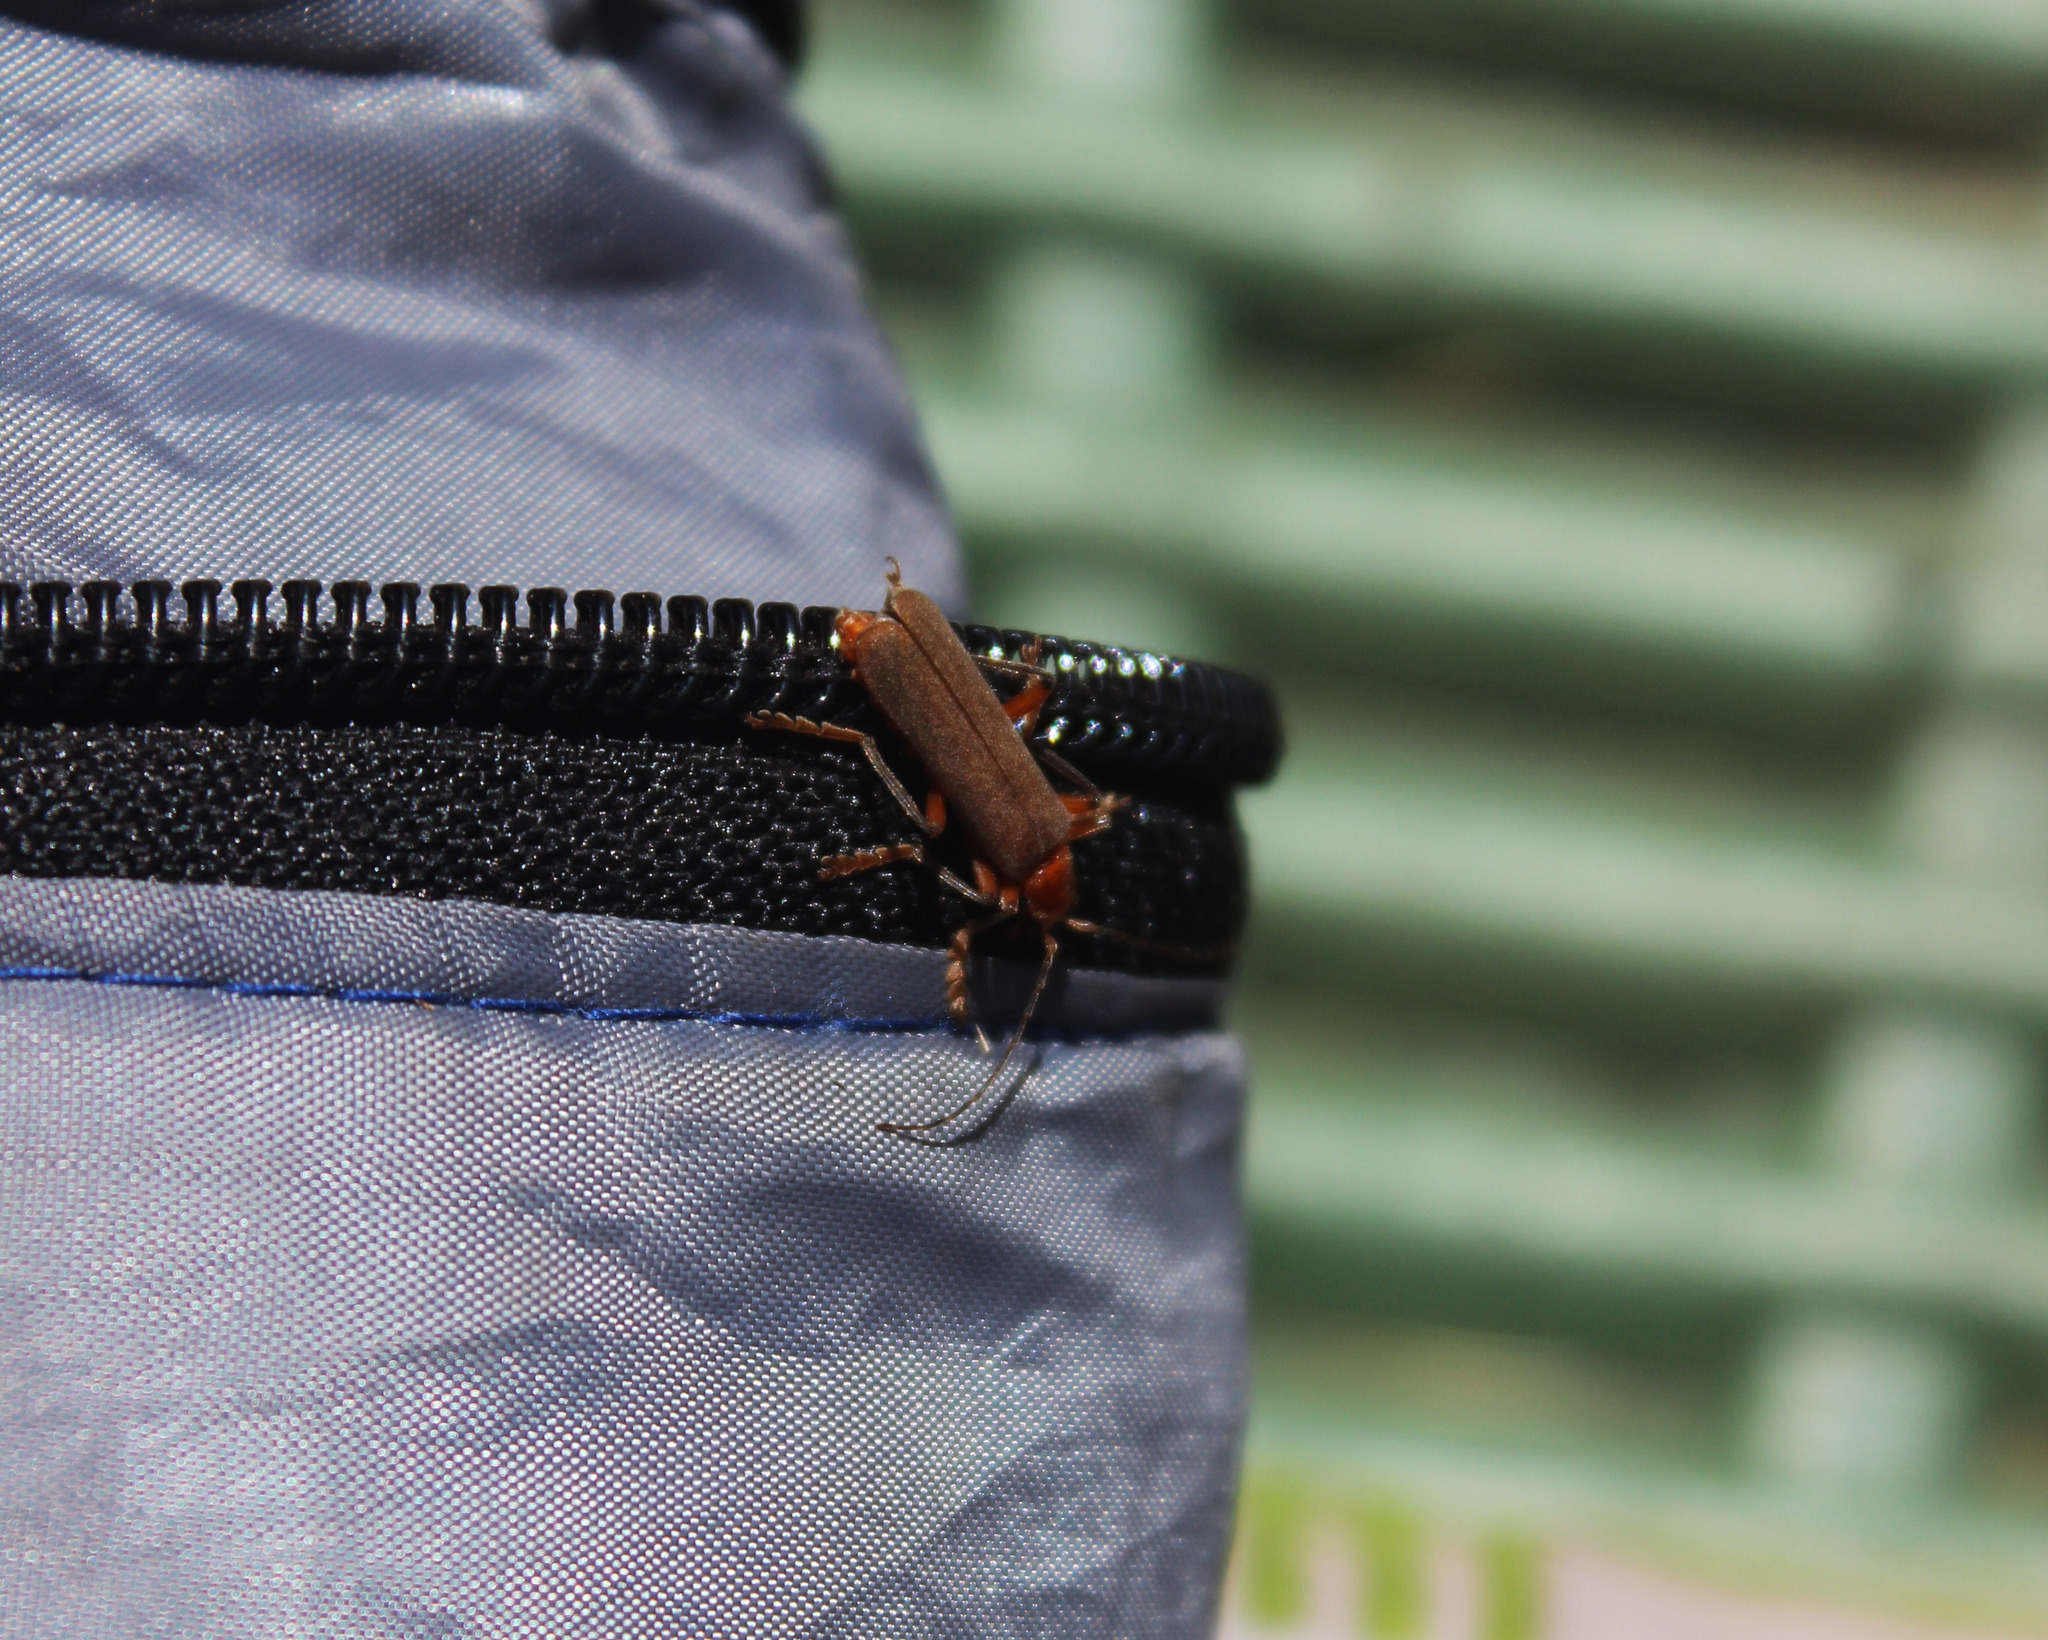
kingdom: Animalia
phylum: Arthropoda
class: Insecta
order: Coleoptera
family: Cantharidae
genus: Pacificanthia
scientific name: Pacificanthia consors
